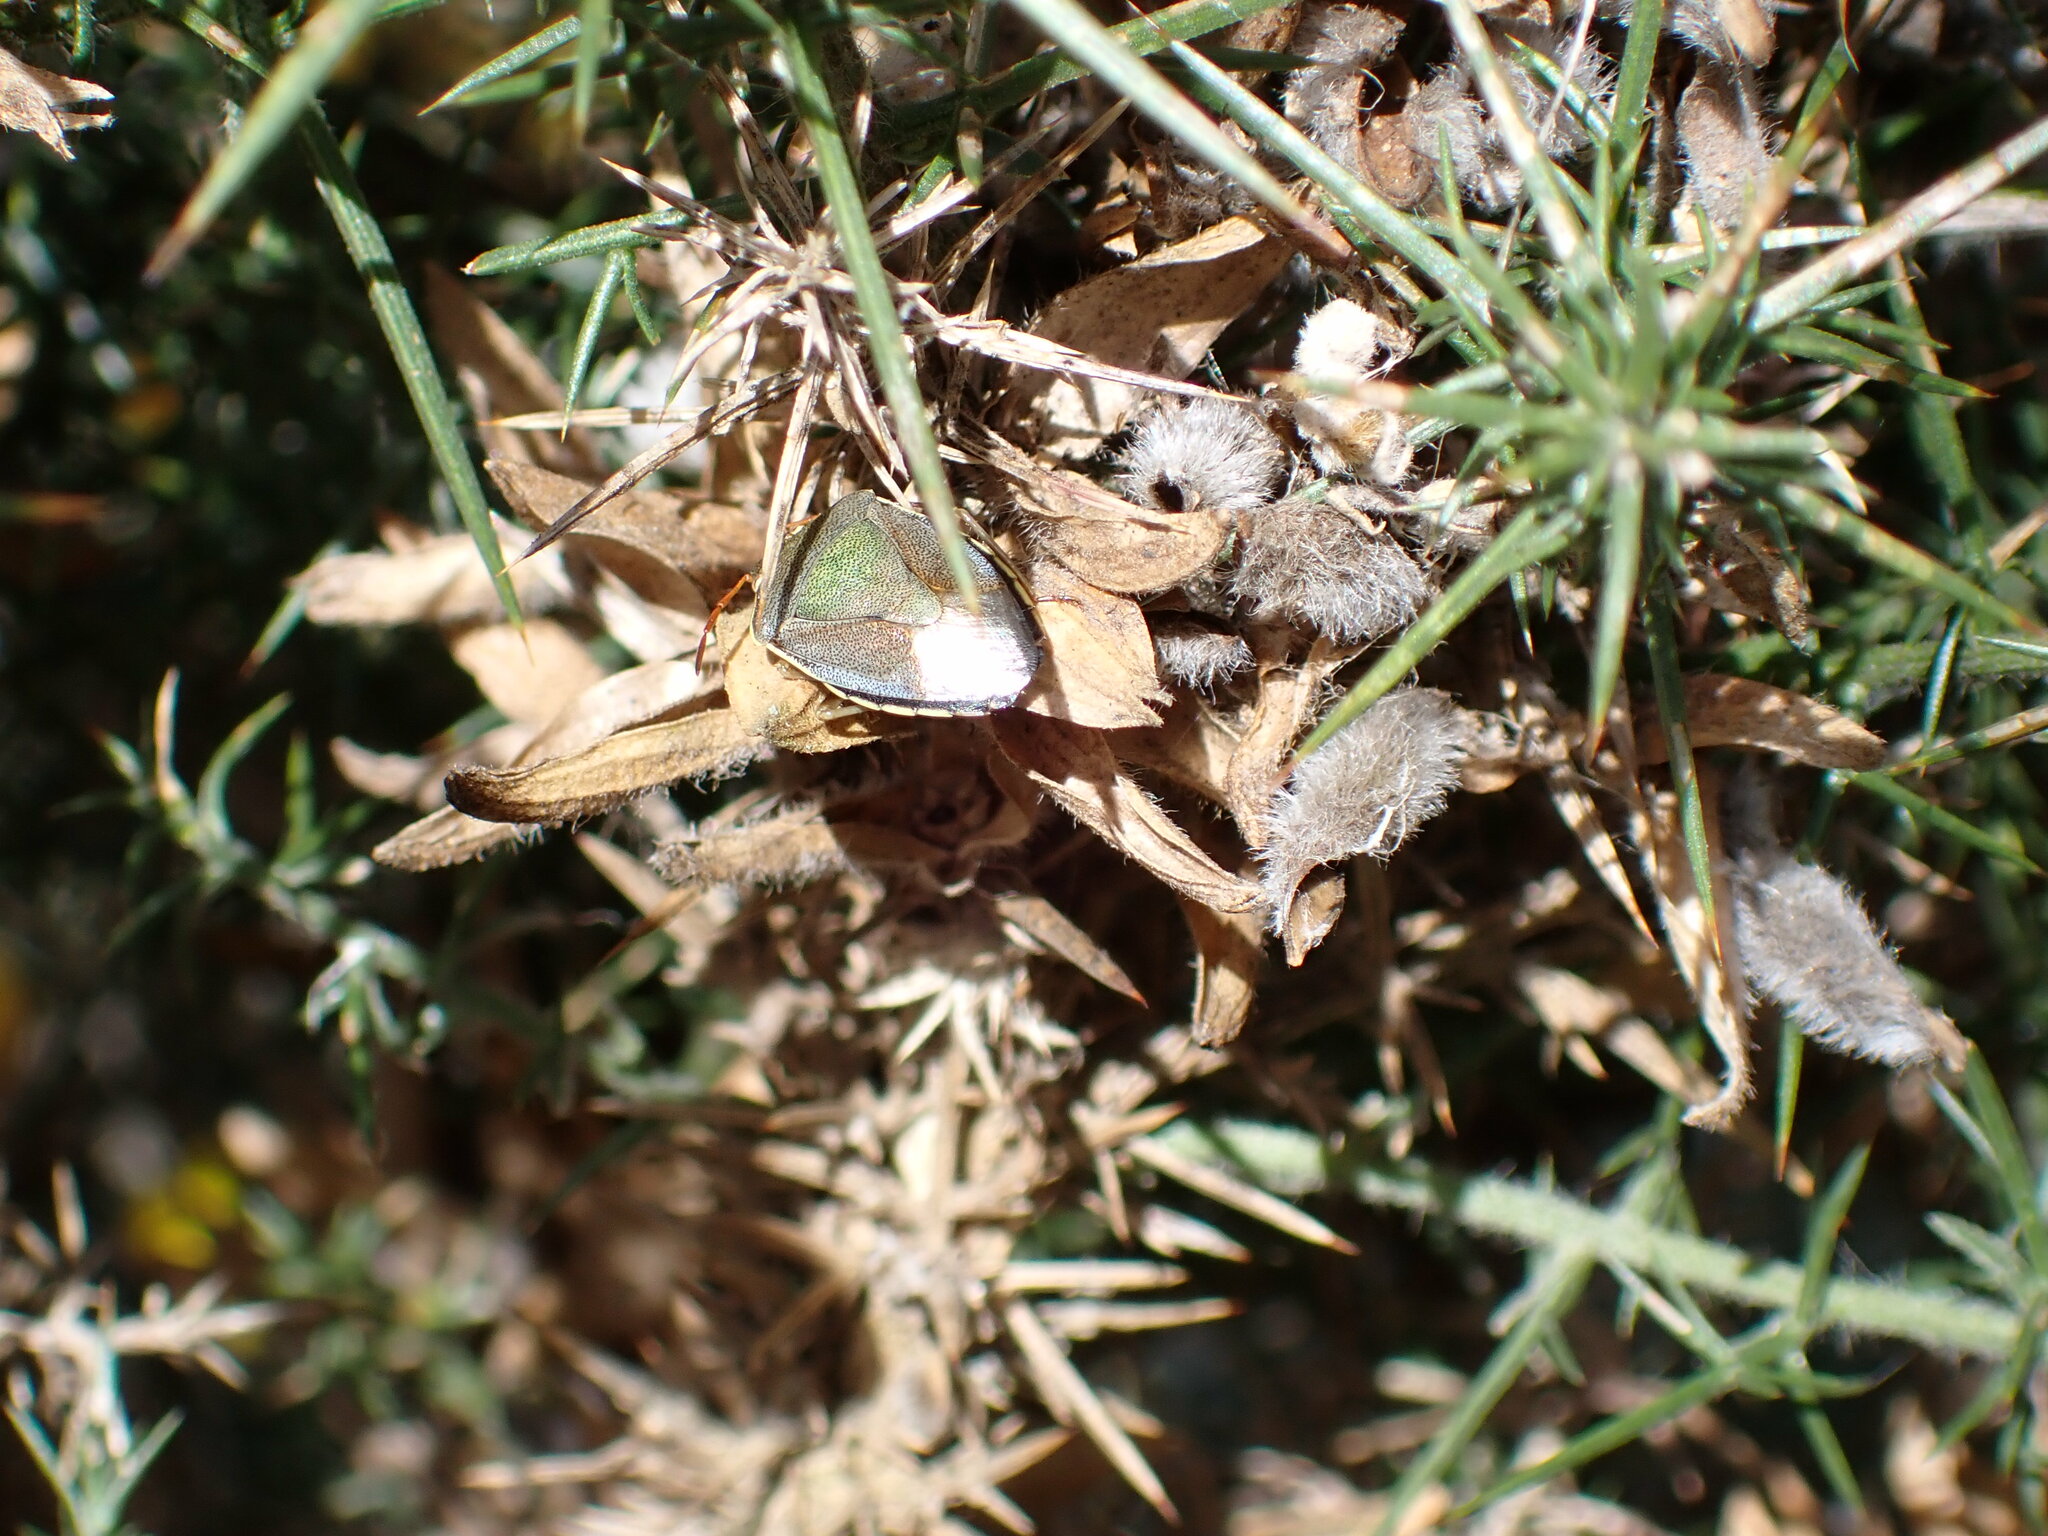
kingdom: Animalia
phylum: Arthropoda
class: Insecta
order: Hemiptera
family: Pentatomidae
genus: Piezodorus
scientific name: Piezodorus lituratus
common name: Stink bug
